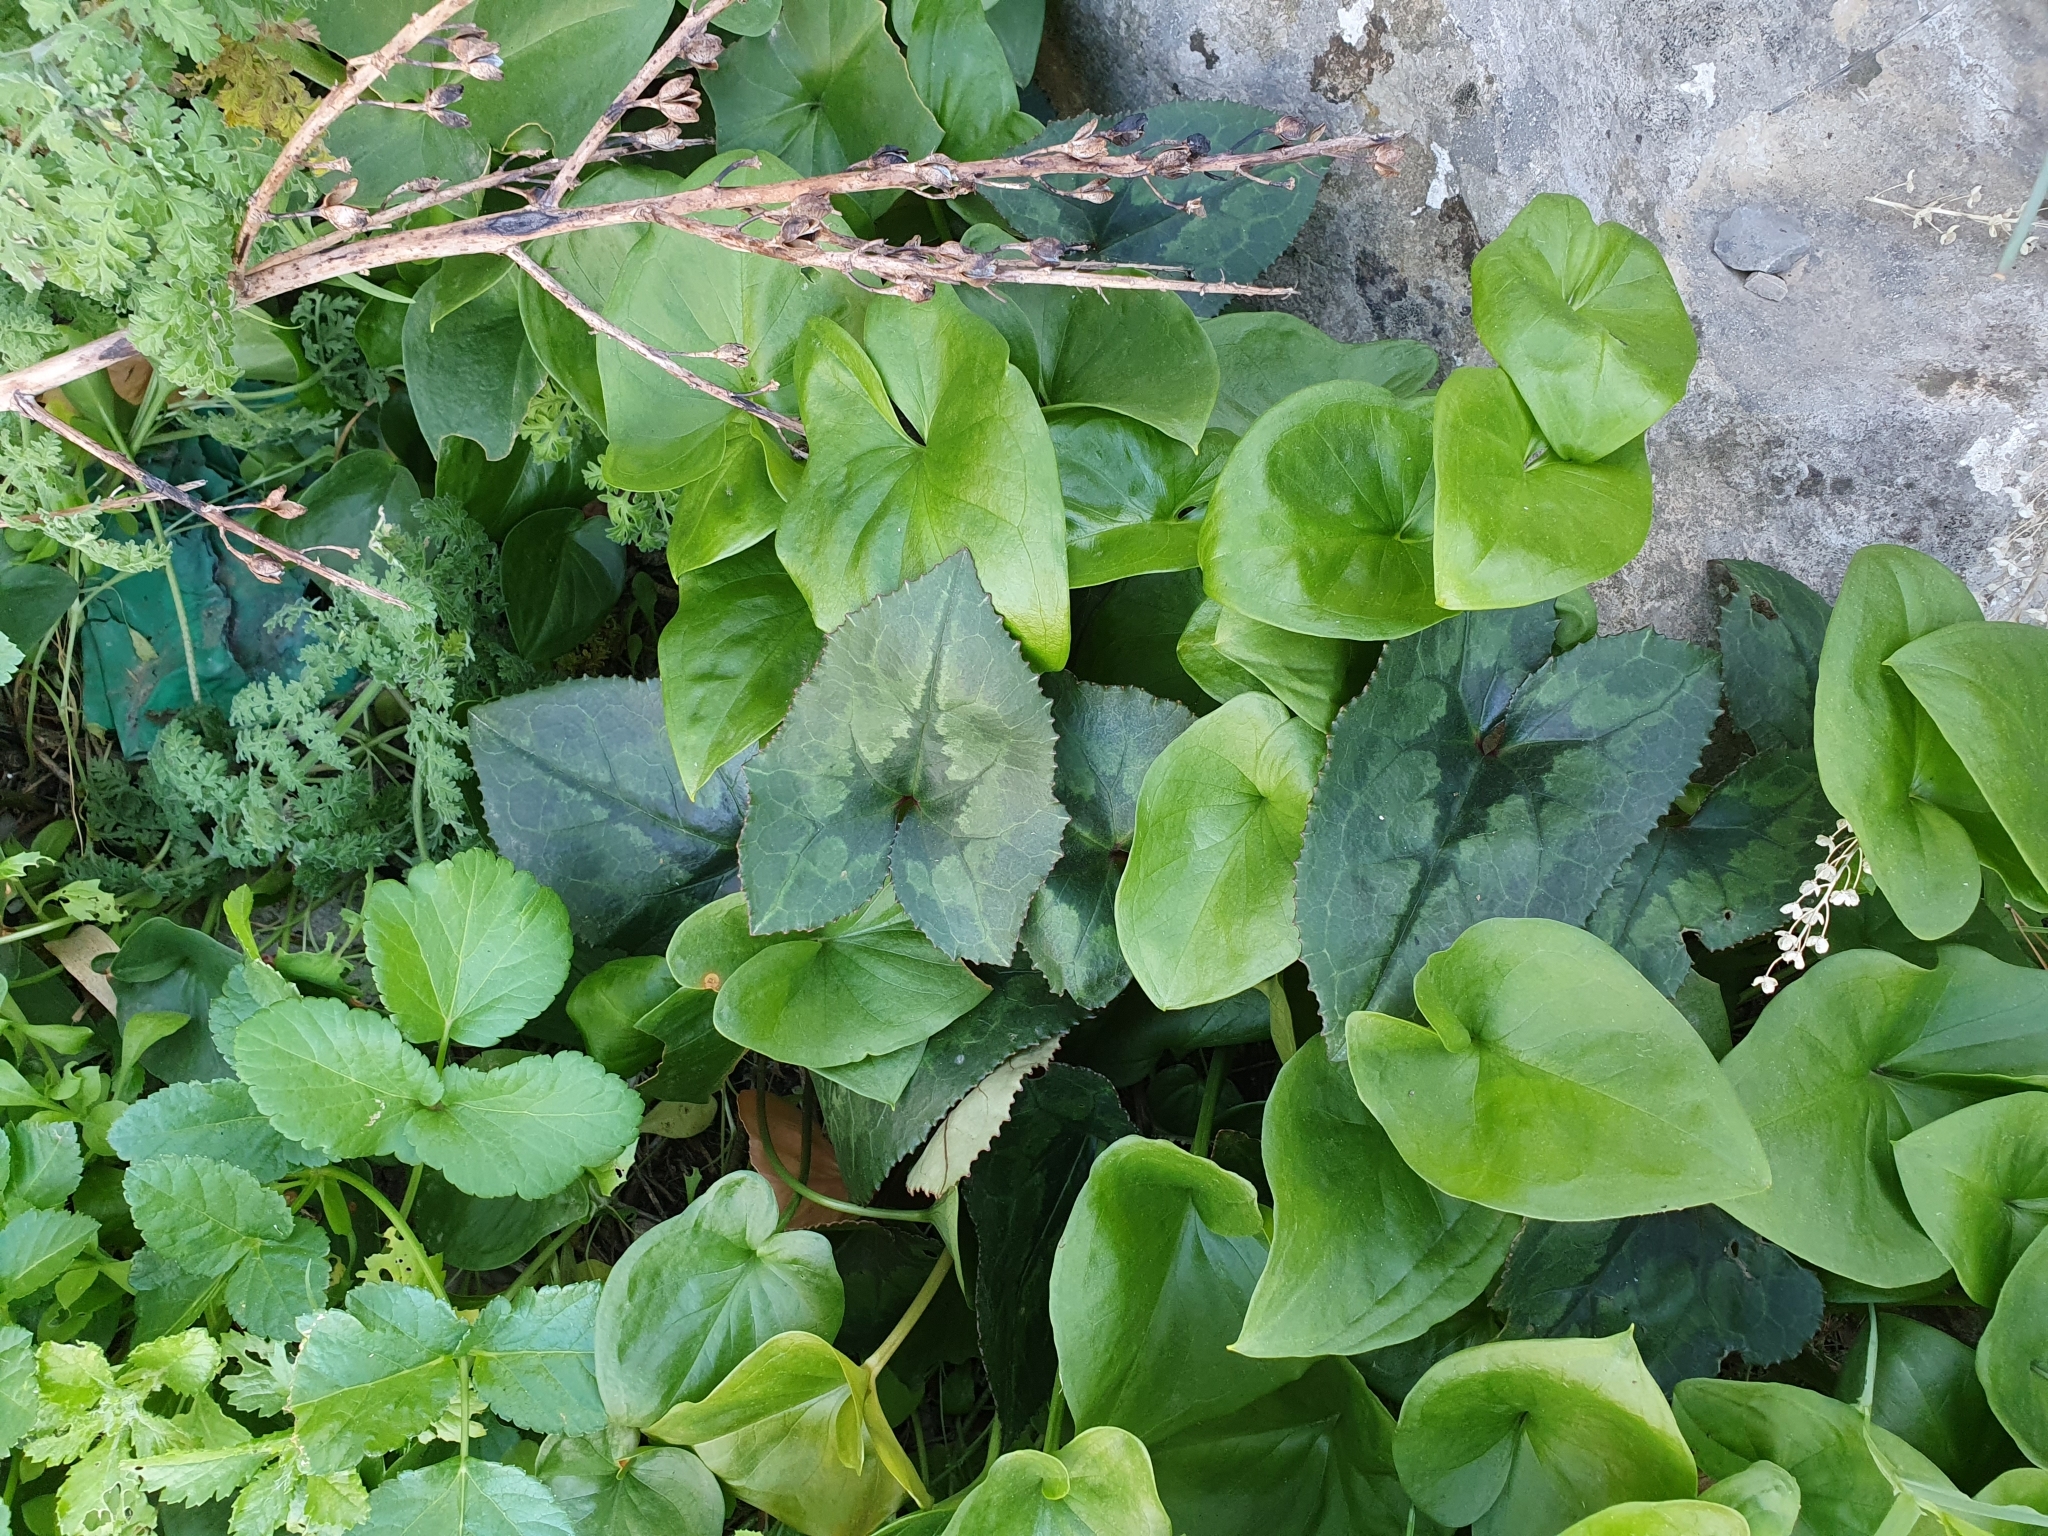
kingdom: Plantae
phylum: Tracheophyta
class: Magnoliopsida
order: Ericales
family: Primulaceae
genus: Cyclamen
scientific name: Cyclamen africanum
